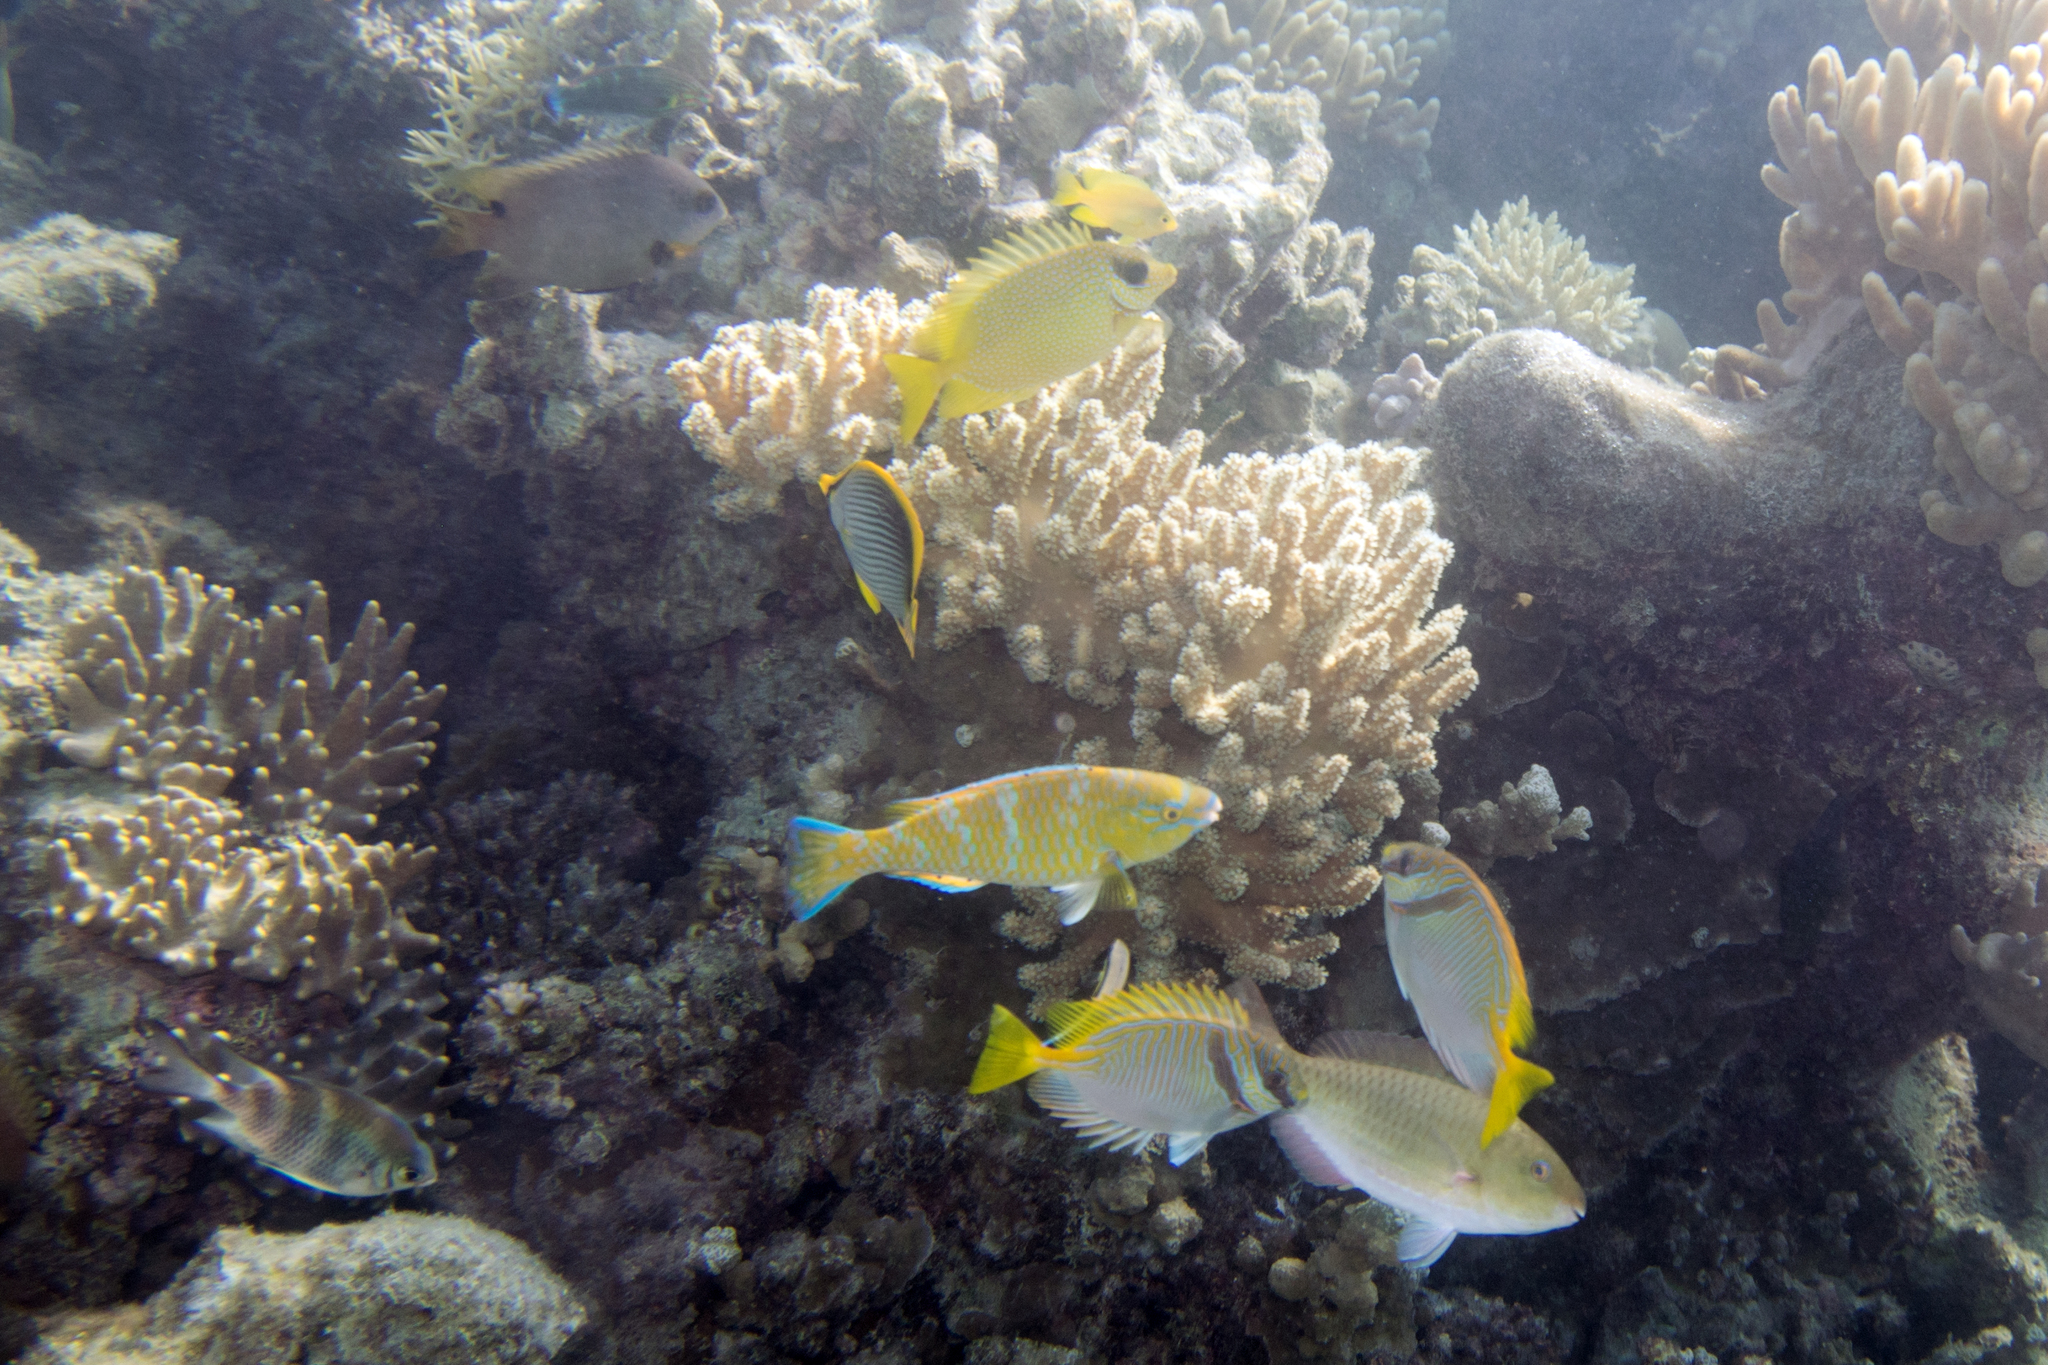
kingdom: Animalia
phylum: Chordata
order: Perciformes
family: Siganidae
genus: Siganus
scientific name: Siganus doliatus
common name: Barred spinefoot
